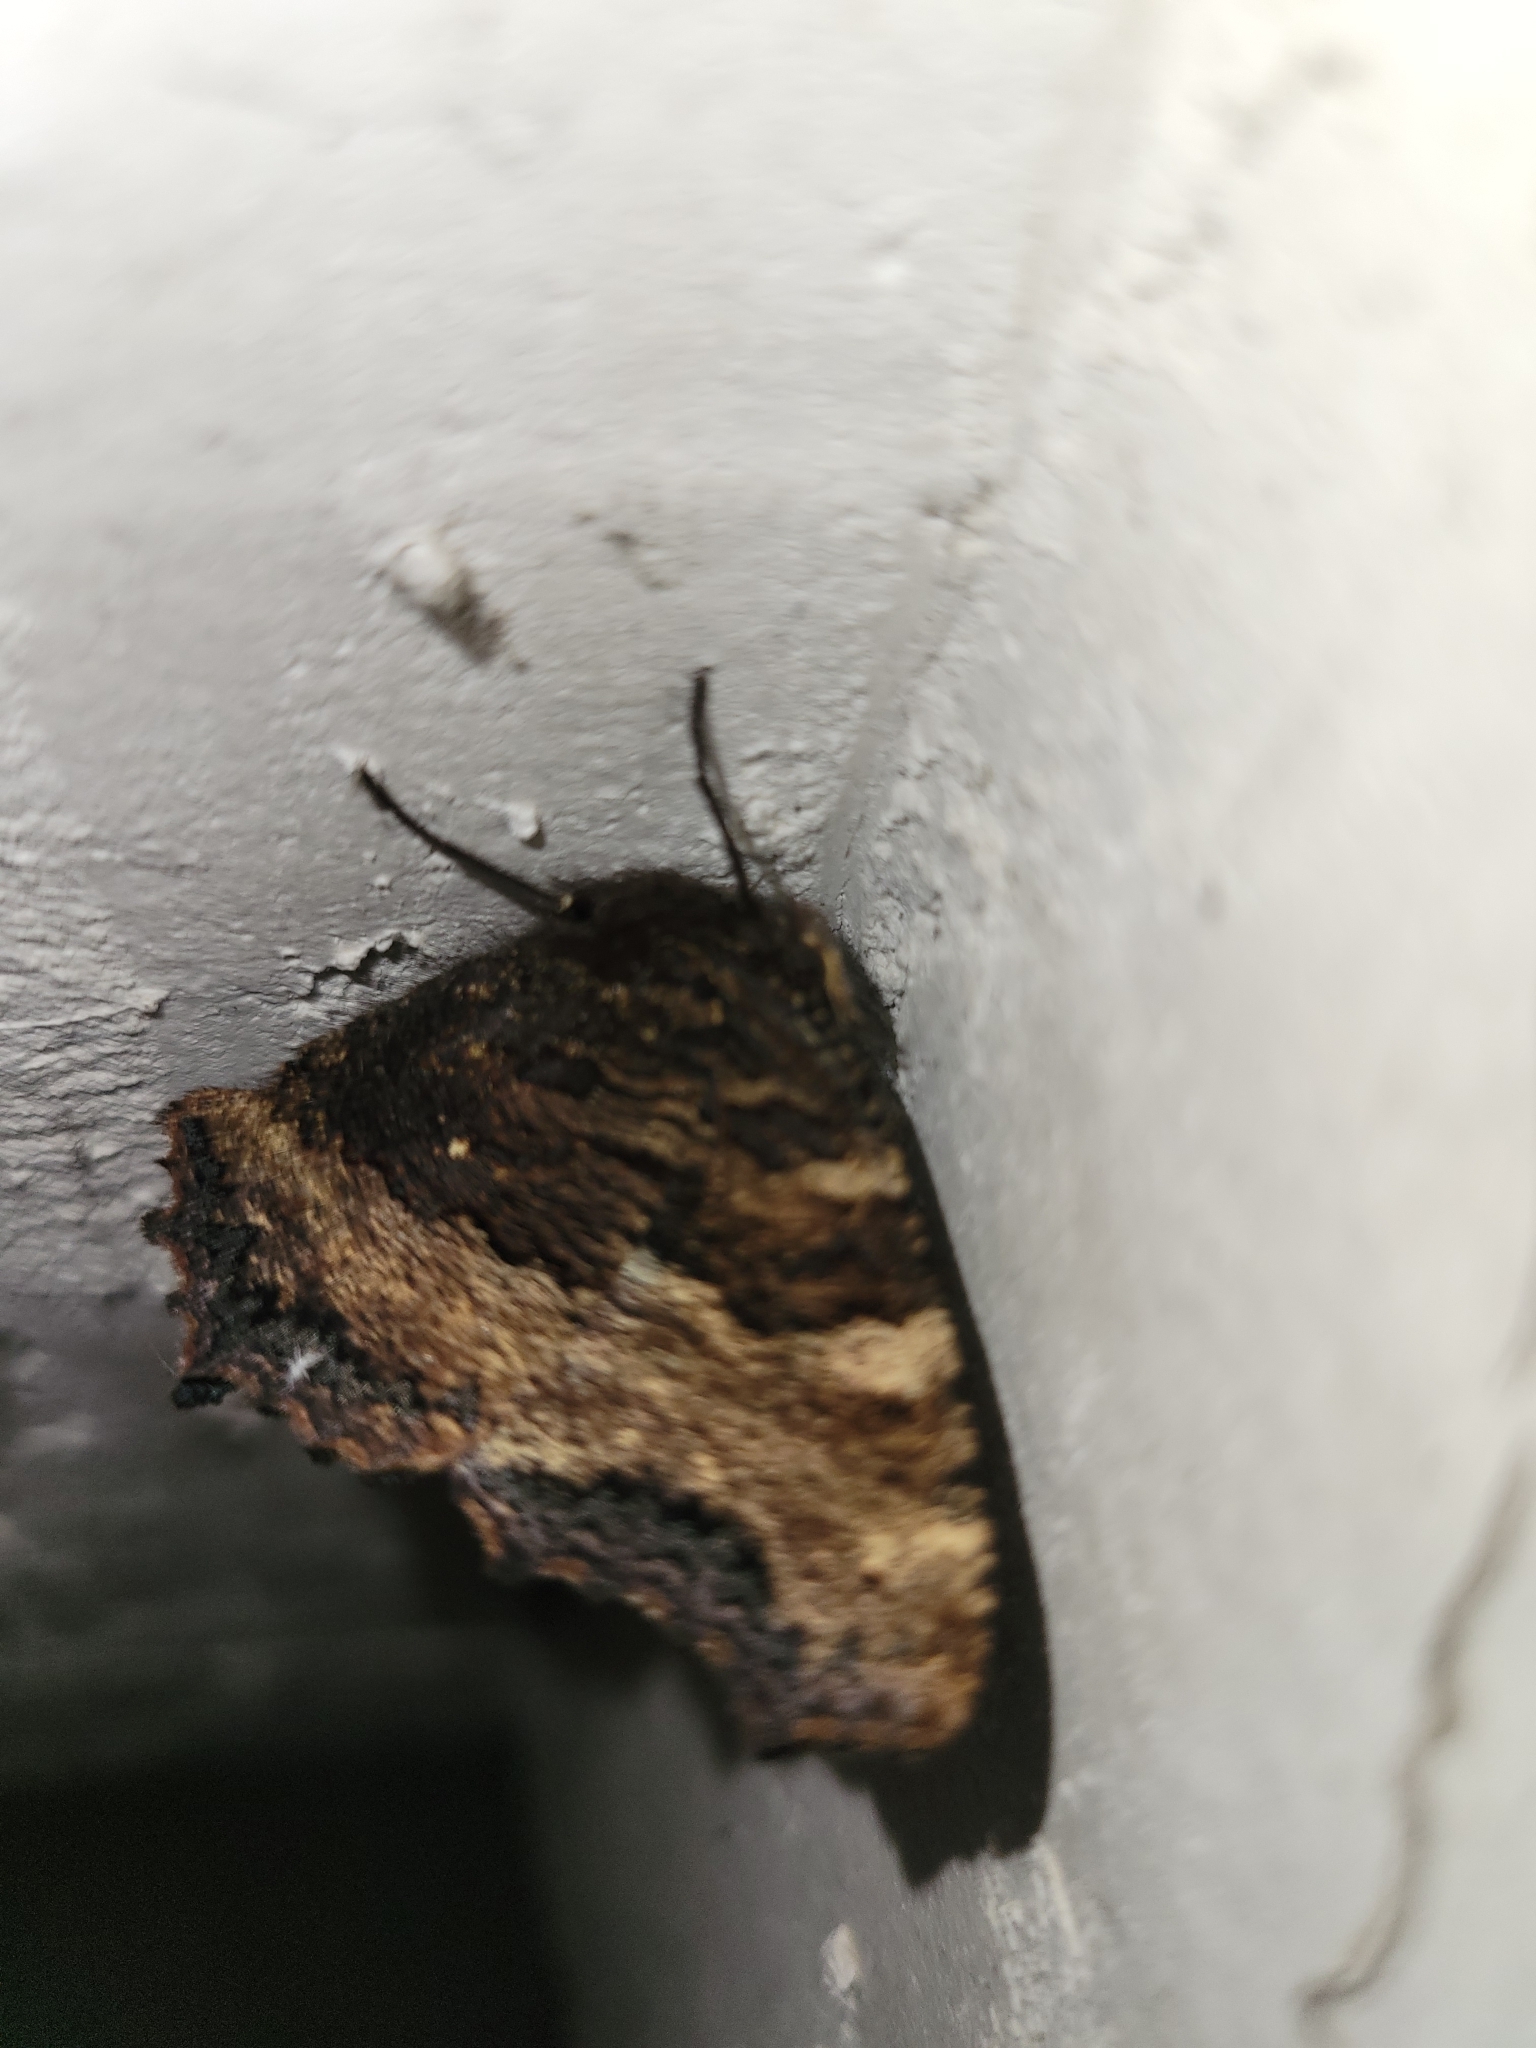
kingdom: Animalia
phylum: Arthropoda
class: Insecta
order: Lepidoptera
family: Nymphalidae
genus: Nymphalis
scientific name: Nymphalis polychloros
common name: Large tortoiseshell
